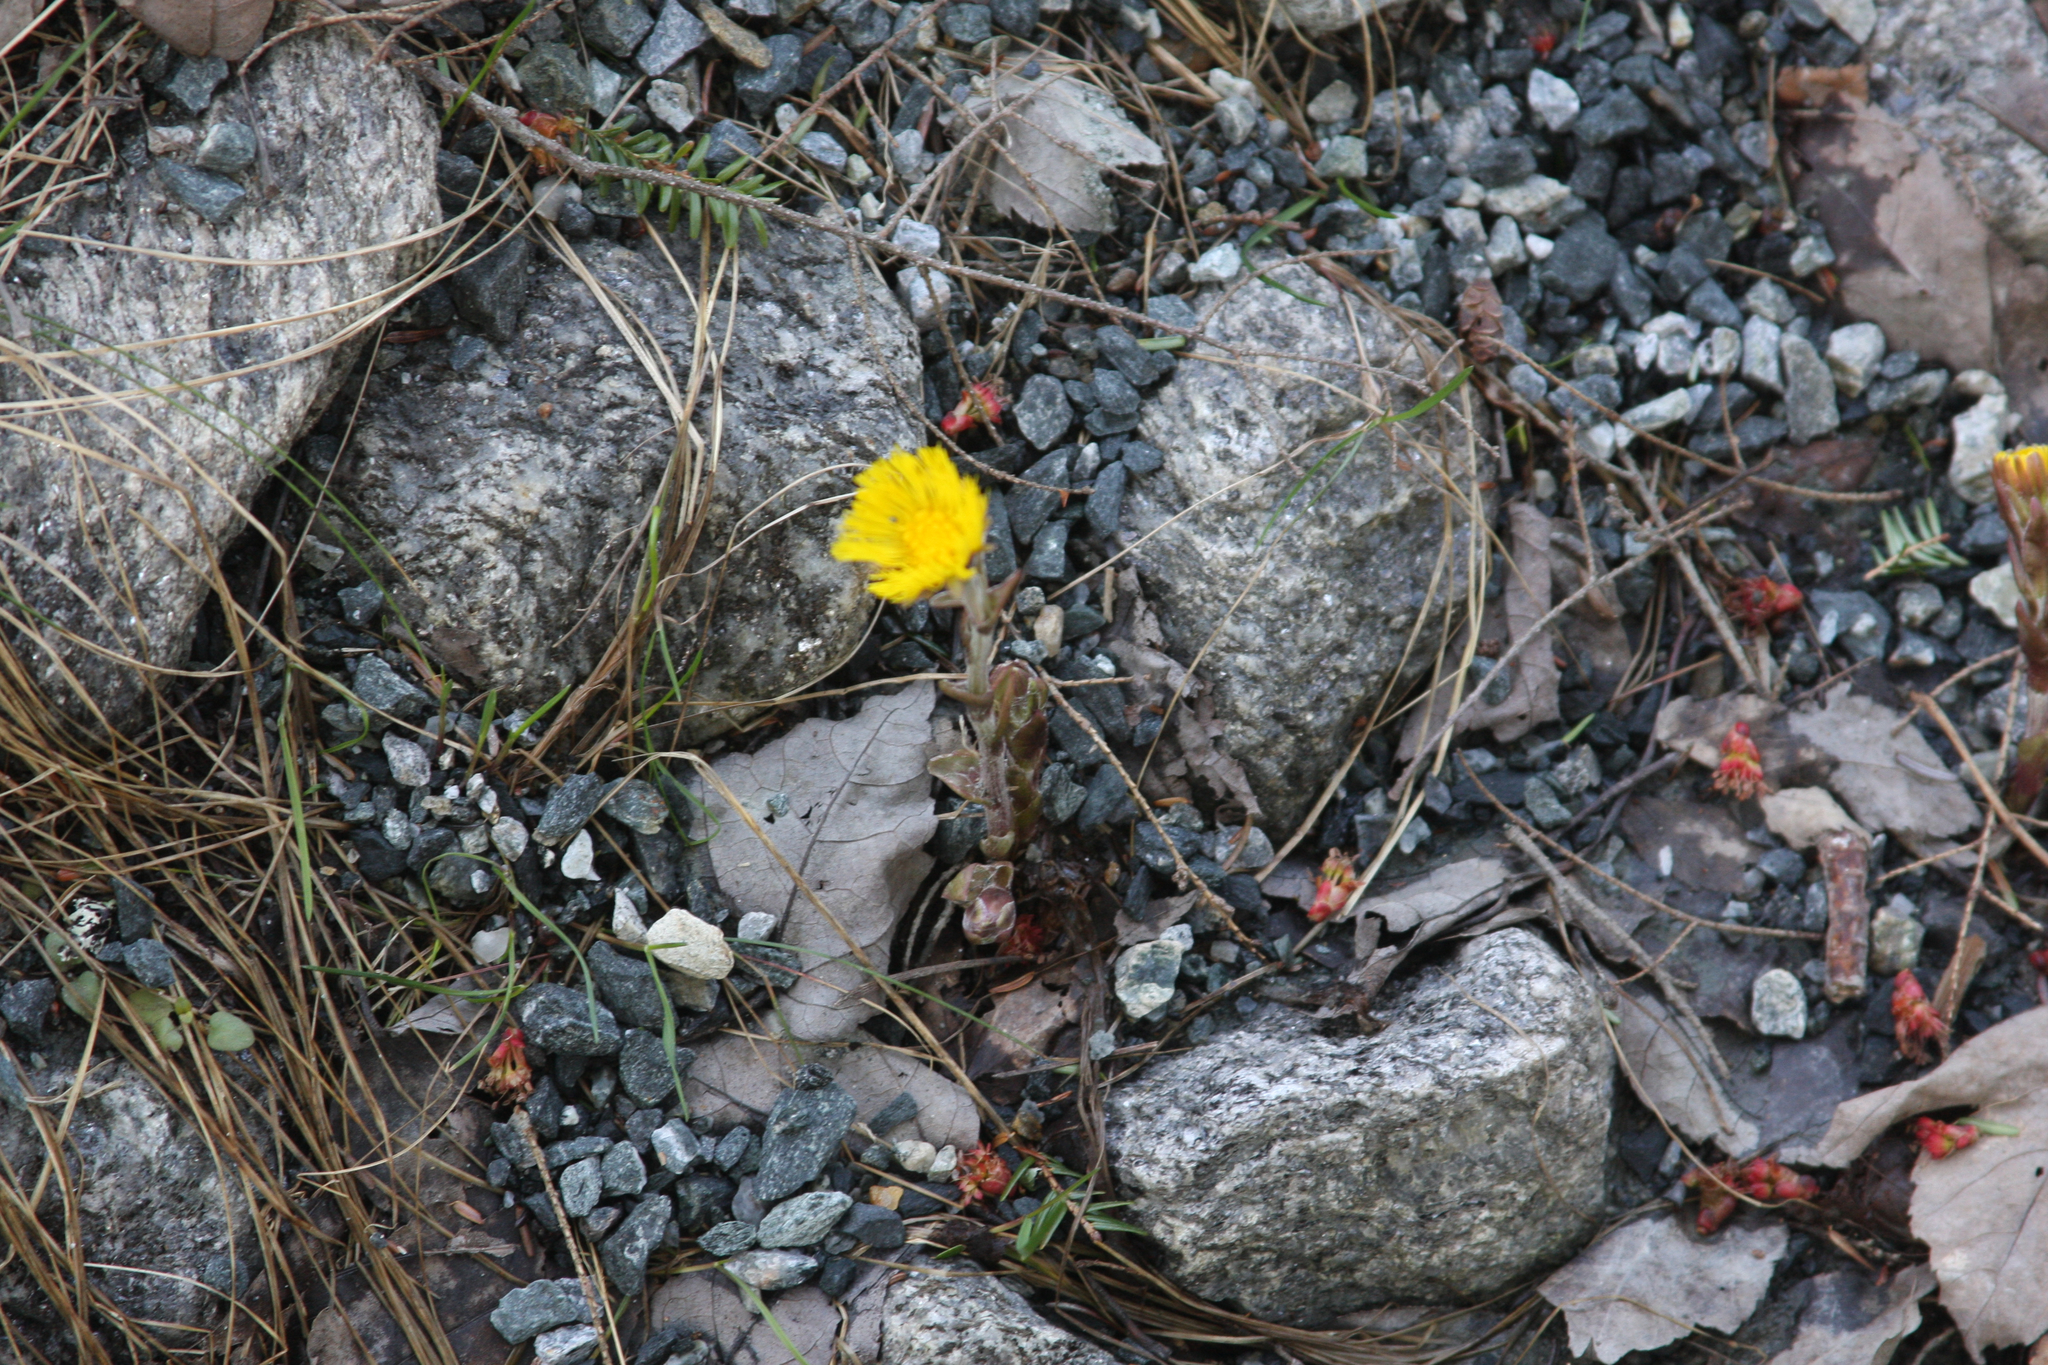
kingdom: Plantae
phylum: Tracheophyta
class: Magnoliopsida
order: Asterales
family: Asteraceae
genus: Tussilago
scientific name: Tussilago farfara
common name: Coltsfoot
